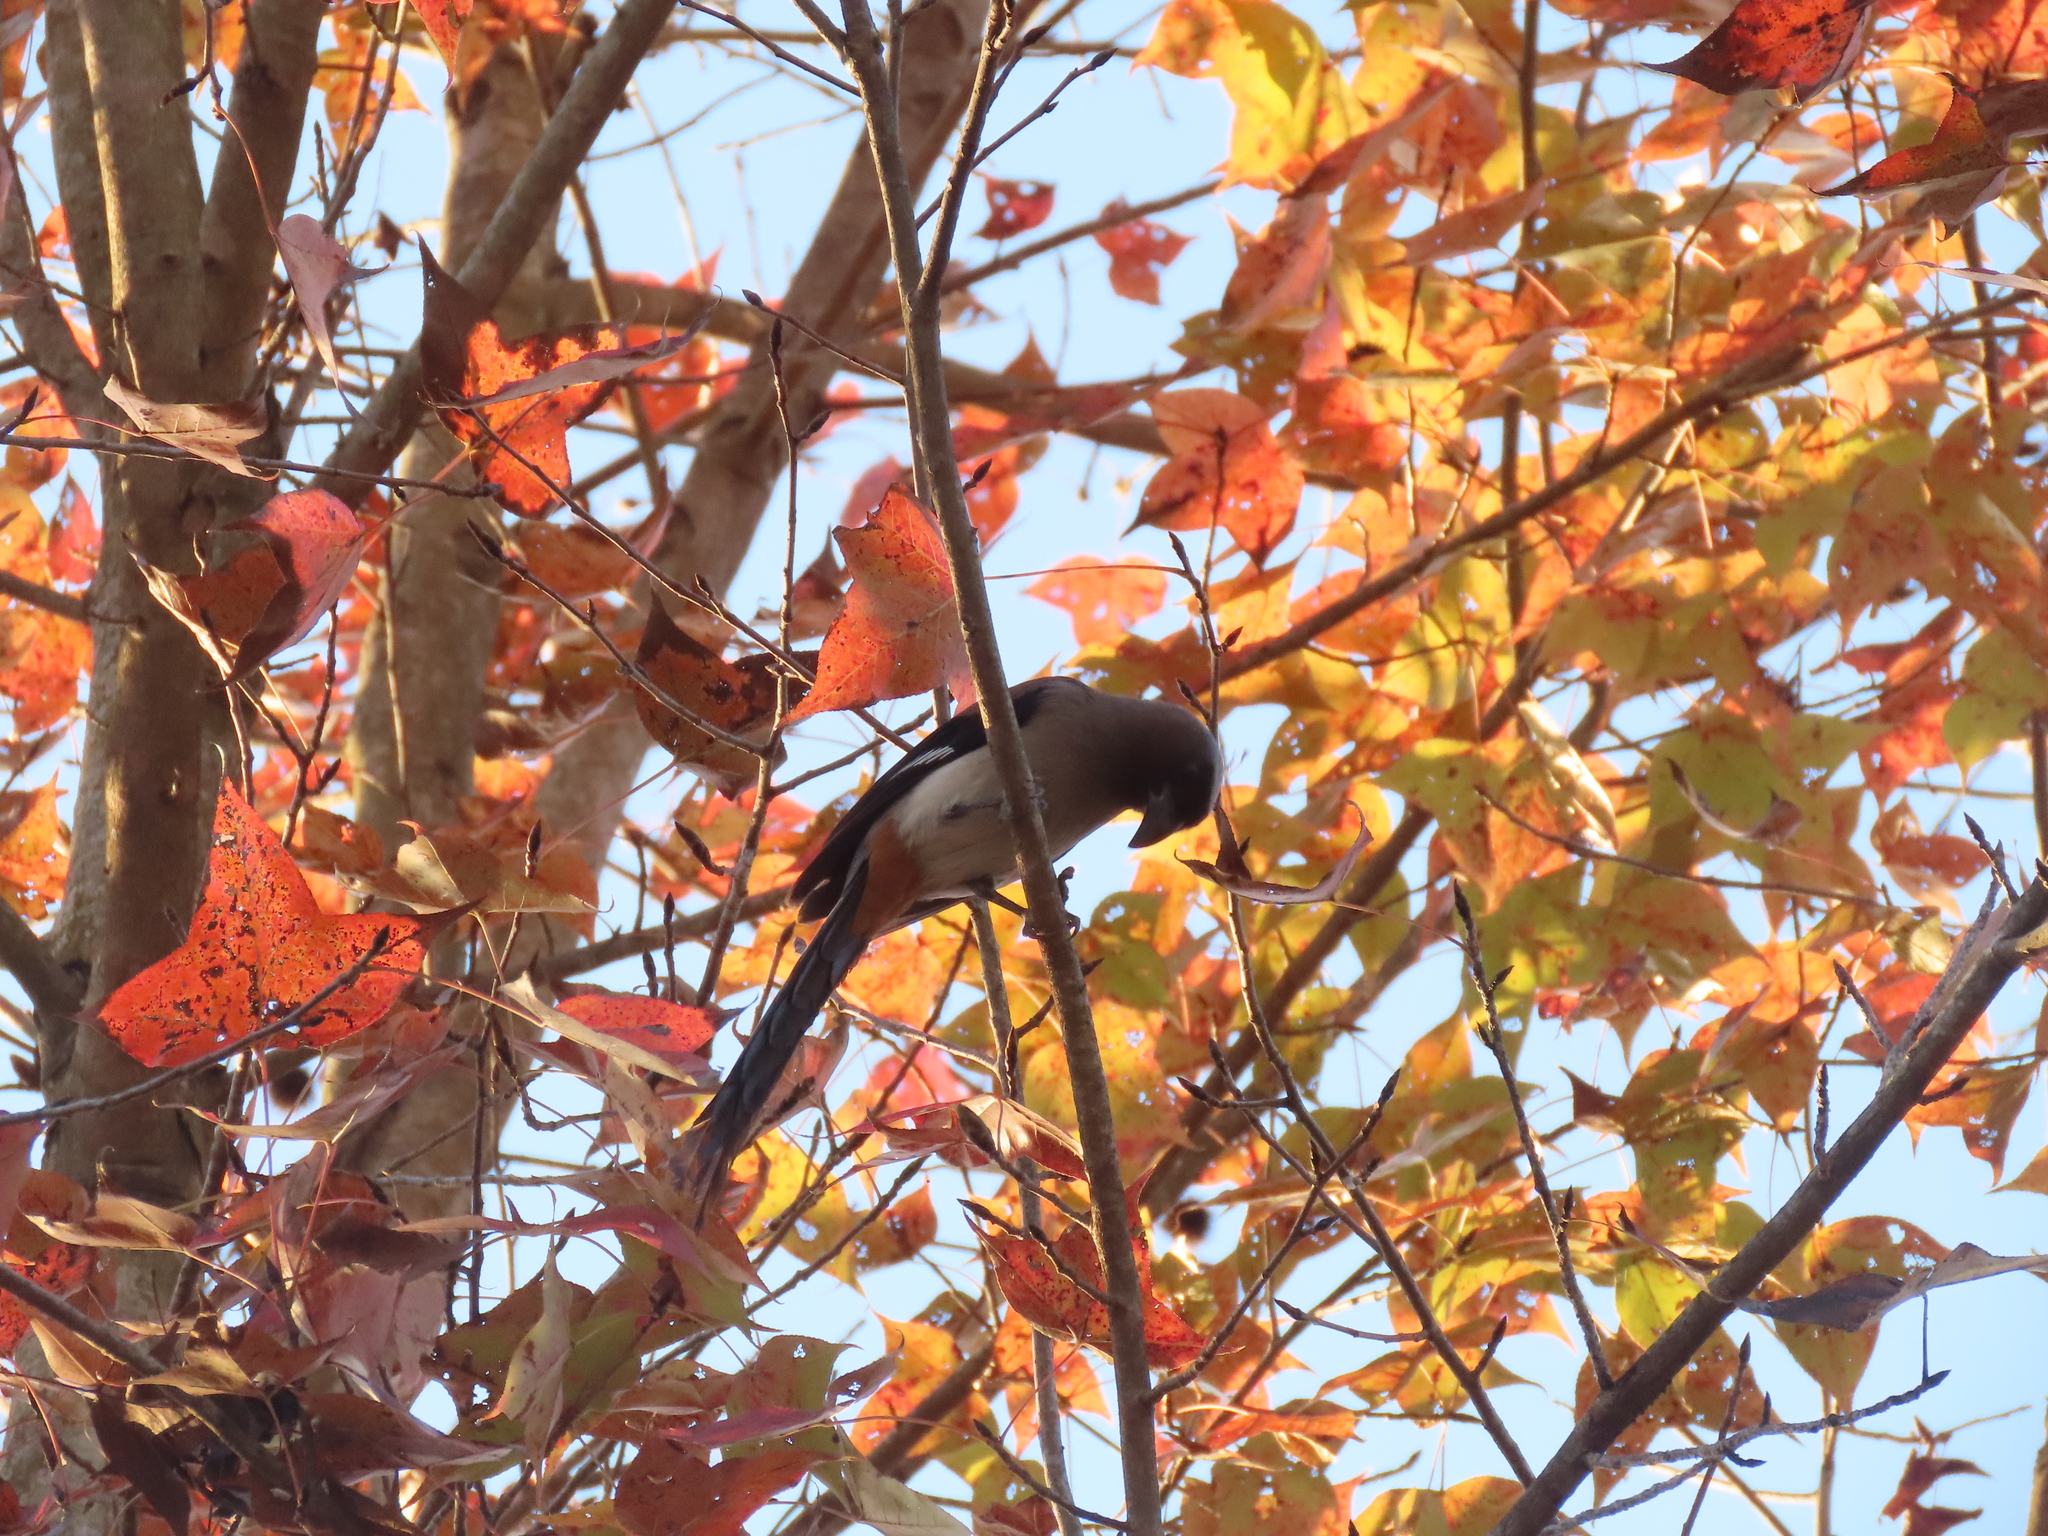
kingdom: Animalia
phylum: Chordata
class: Aves
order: Passeriformes
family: Corvidae
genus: Dendrocitta
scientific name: Dendrocitta formosae
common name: Grey treepie
